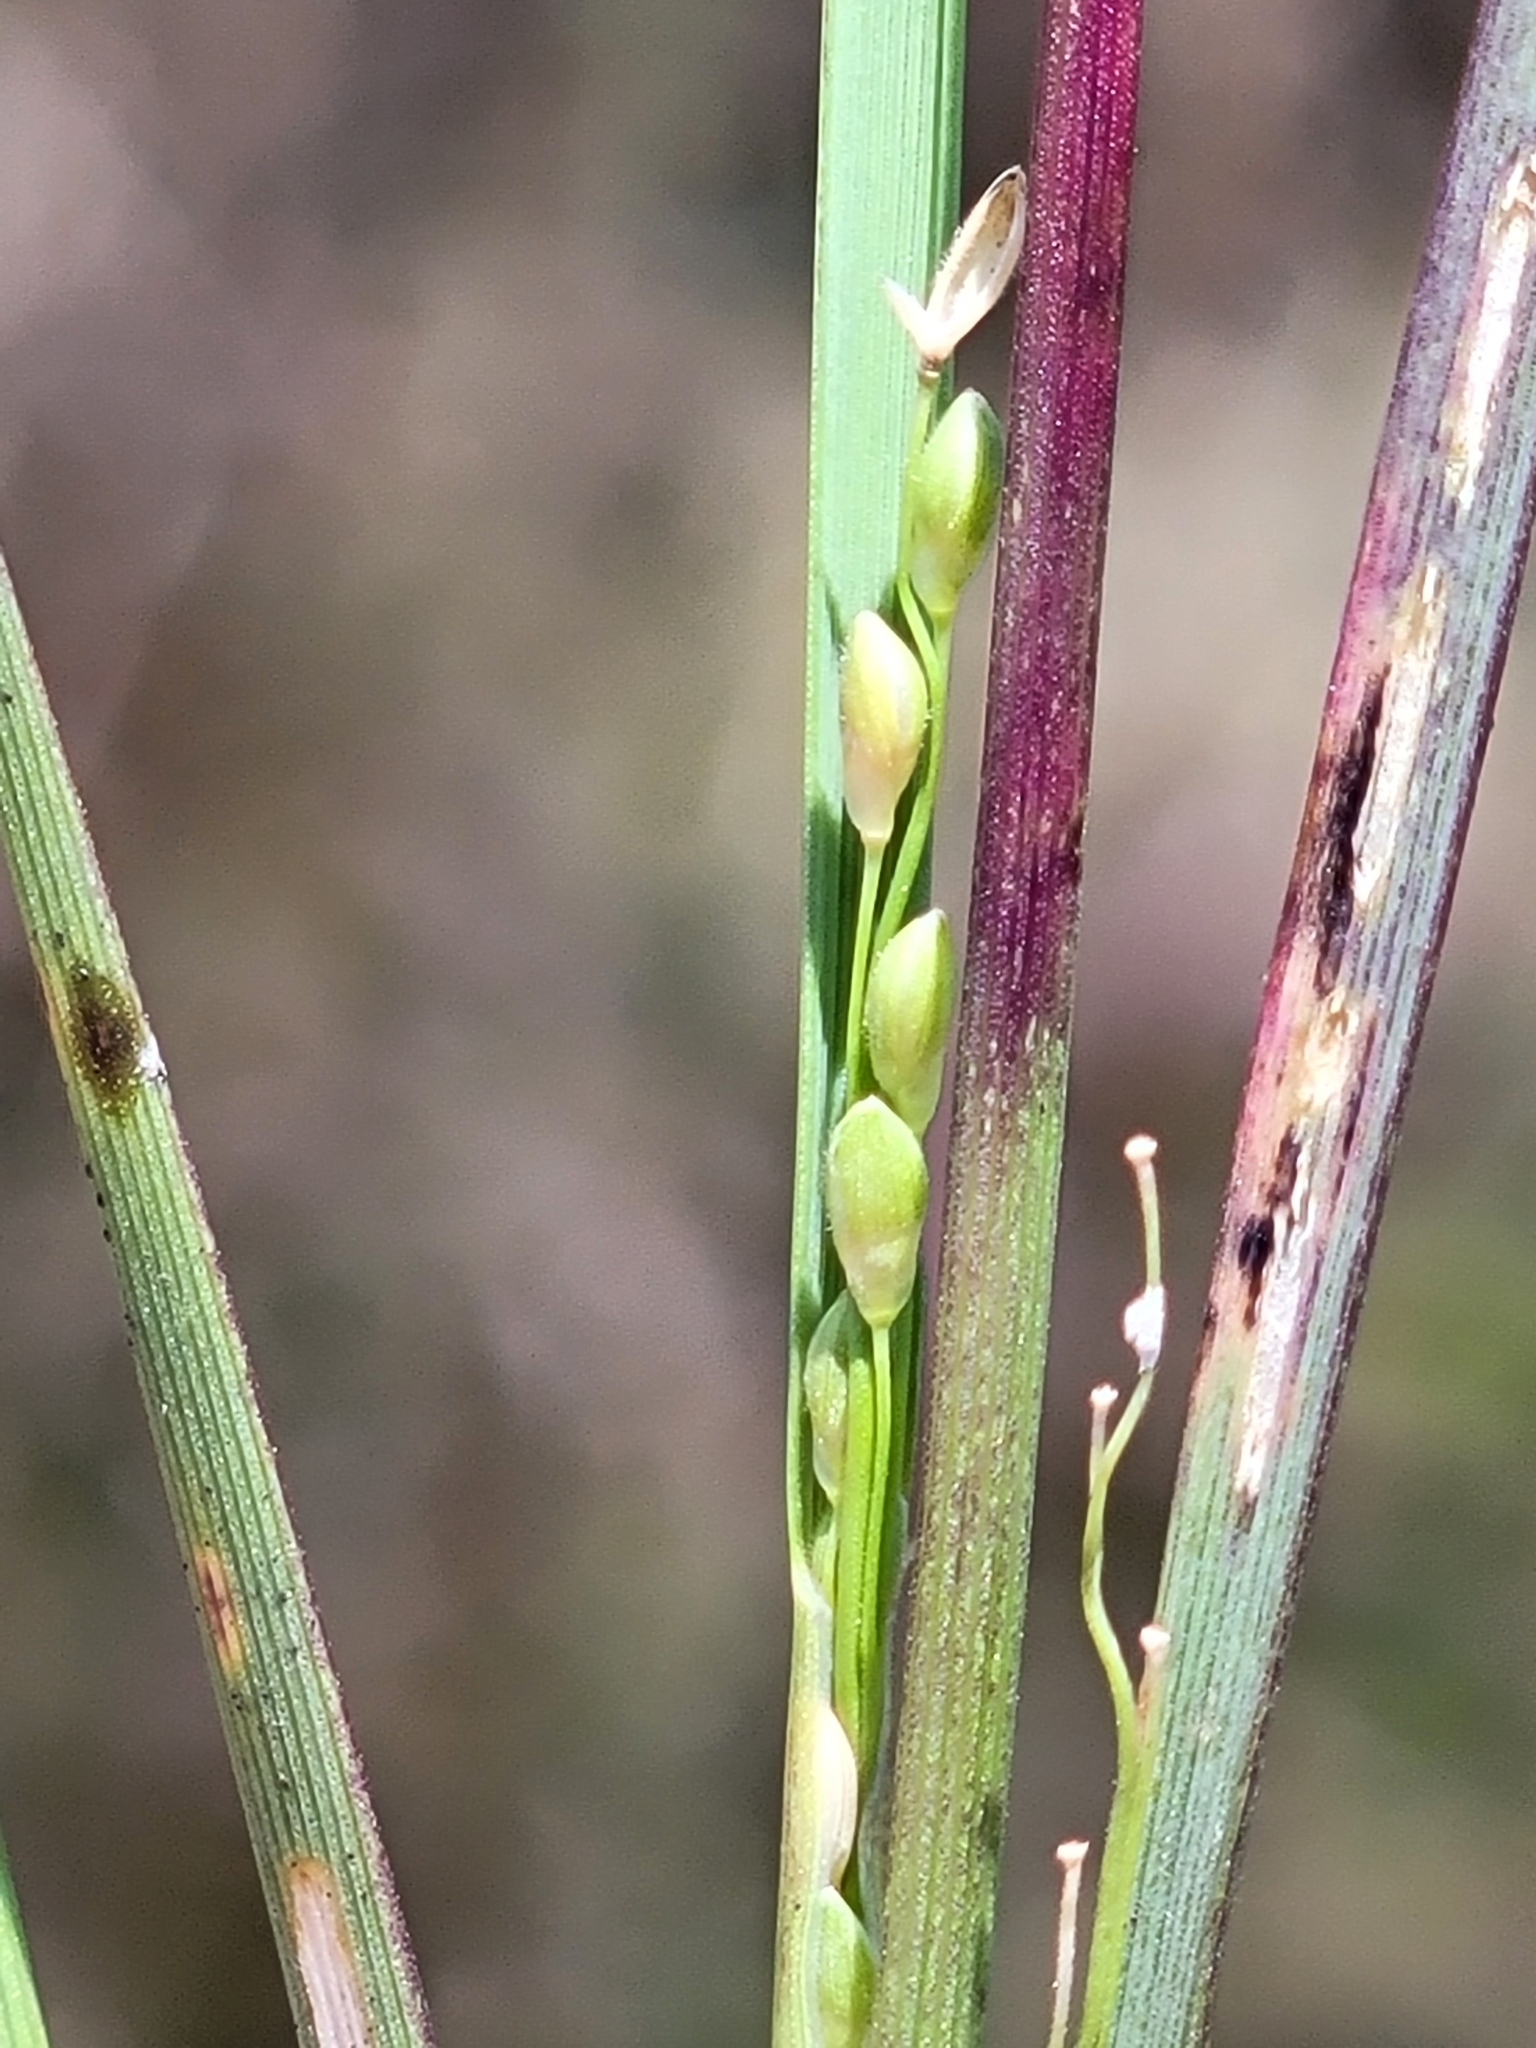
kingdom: Plantae
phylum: Tracheophyta
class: Liliopsida
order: Poales
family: Poaceae
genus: Dichanthelium
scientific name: Dichanthelium neuranthum
